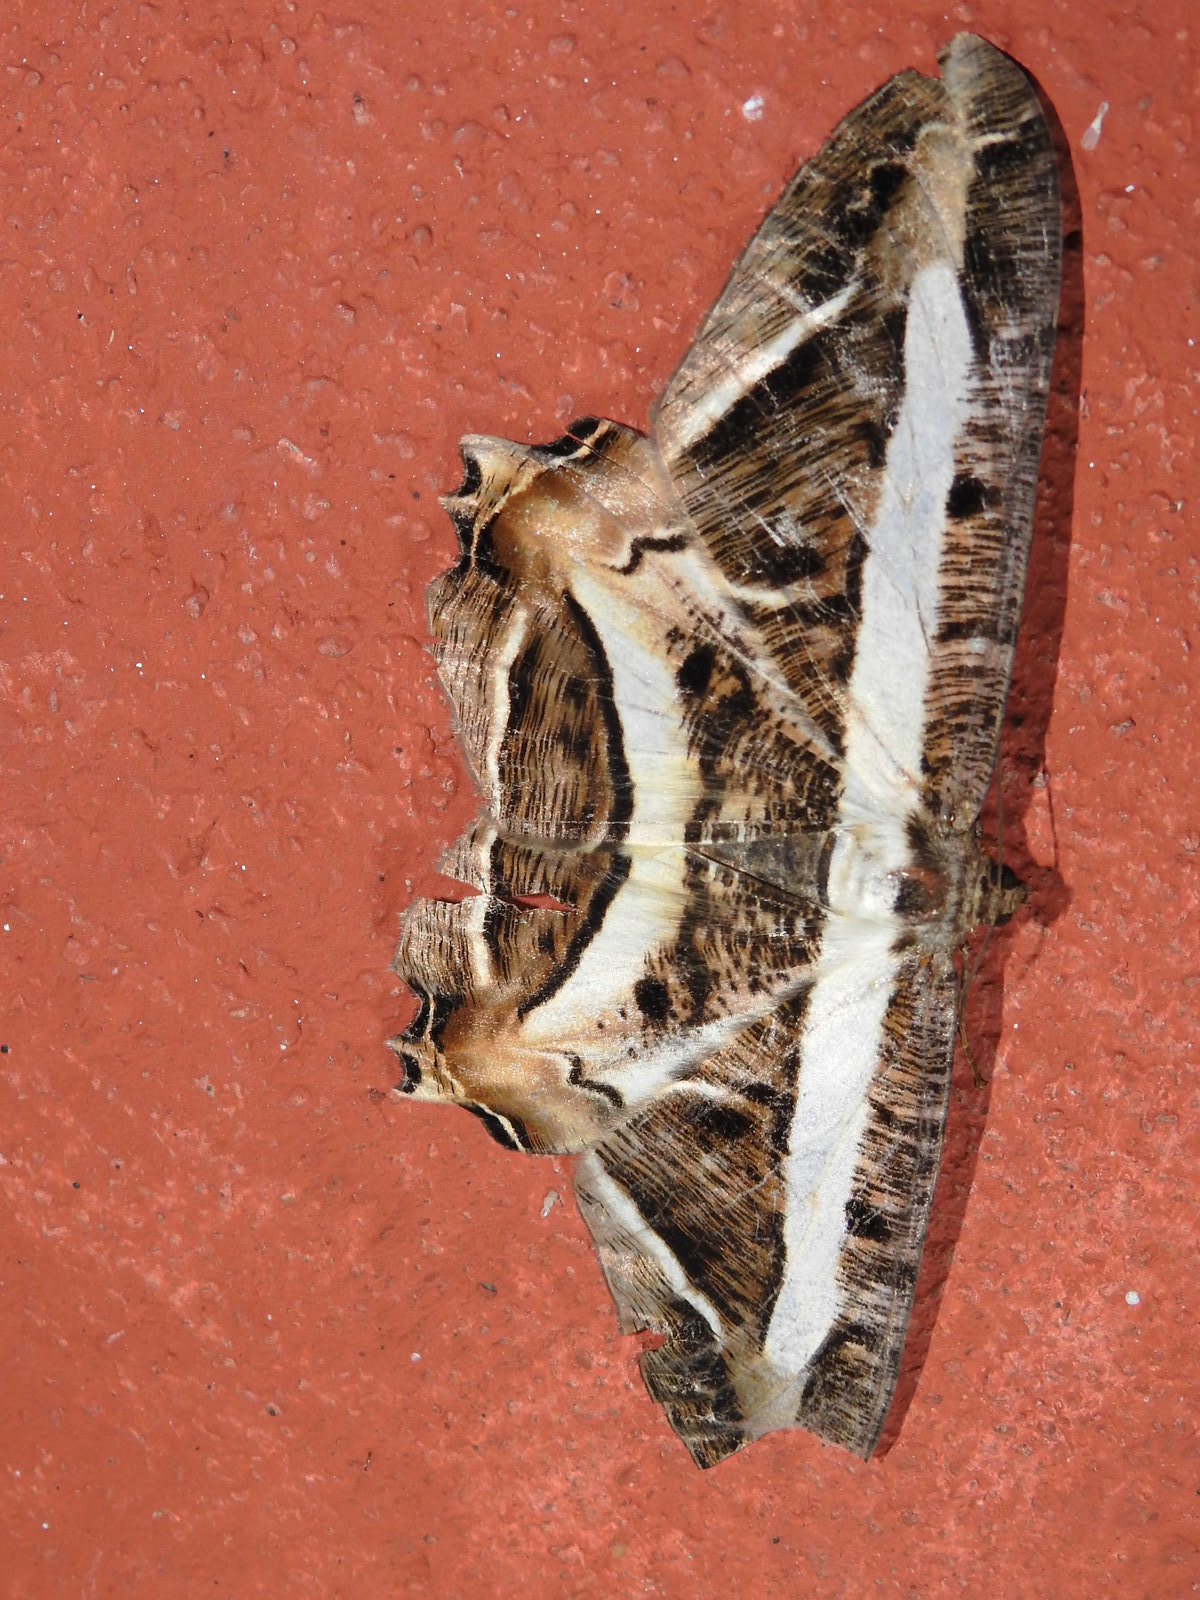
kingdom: Animalia
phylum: Arthropoda
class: Insecta
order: Lepidoptera
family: Geometridae
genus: Chorodna
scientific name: Chorodna fulgurita
